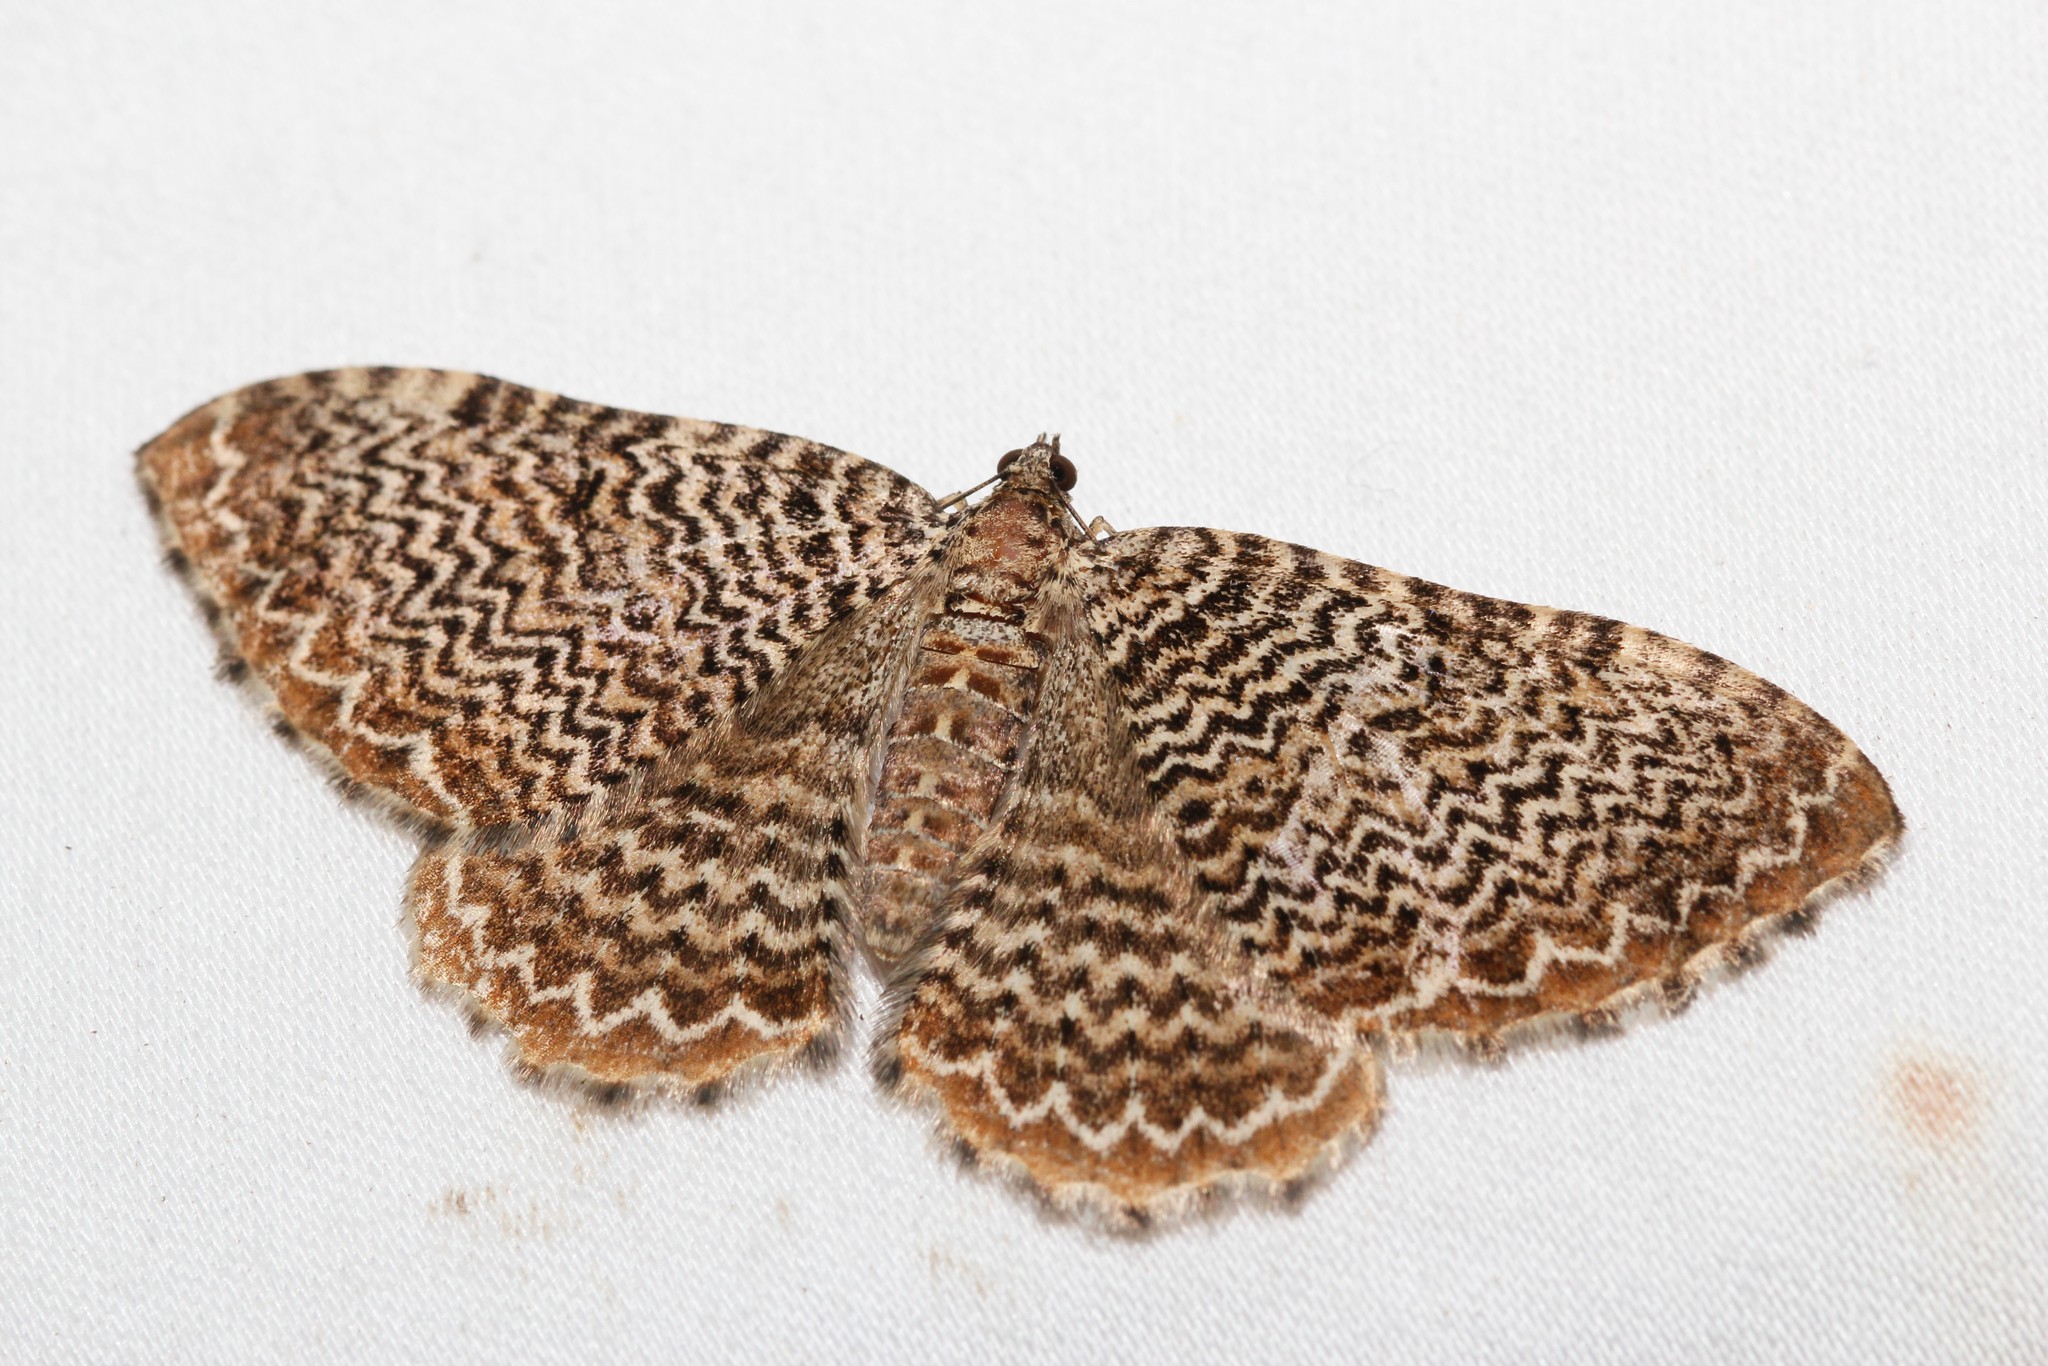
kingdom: Animalia
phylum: Arthropoda
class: Insecta
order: Lepidoptera
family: Geometridae
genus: Rheumaptera
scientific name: Rheumaptera
